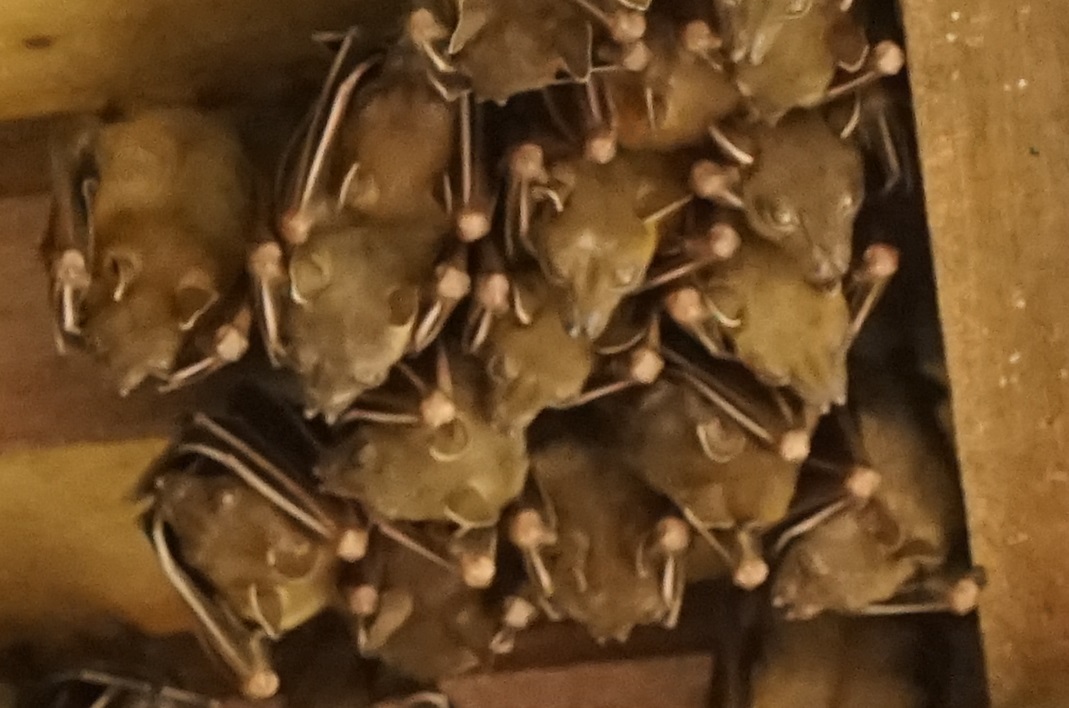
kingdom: Animalia
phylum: Chordata
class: Mammalia
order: Chiroptera
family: Pteropodidae
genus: Cynopterus
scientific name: Cynopterus brachyotis
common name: Lesser short-nosed fruit bat
